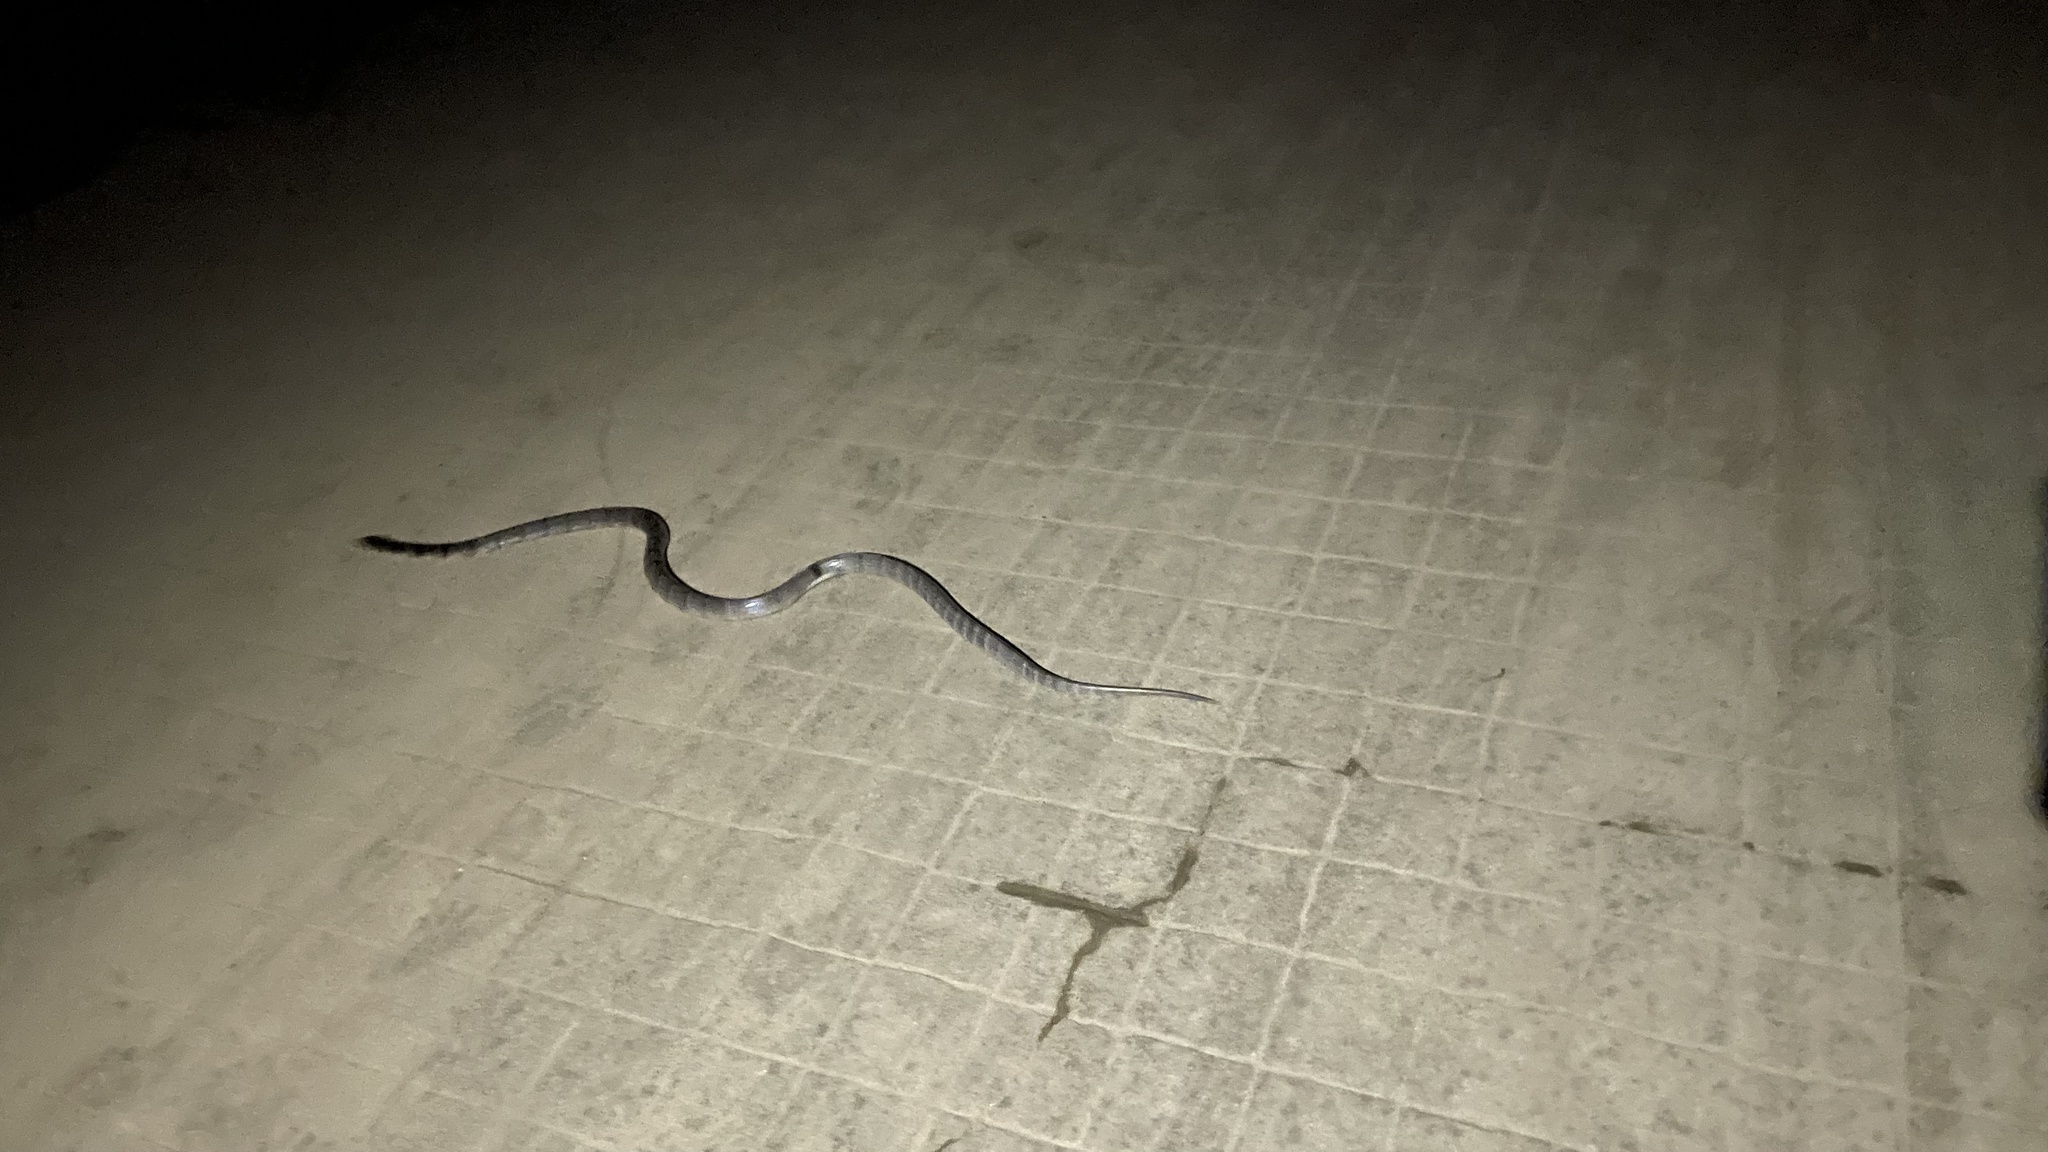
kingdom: Animalia
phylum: Chordata
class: Squamata
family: Elapidae
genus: Bungarus
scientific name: Bungarus multicinctus
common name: Many-banded krait
